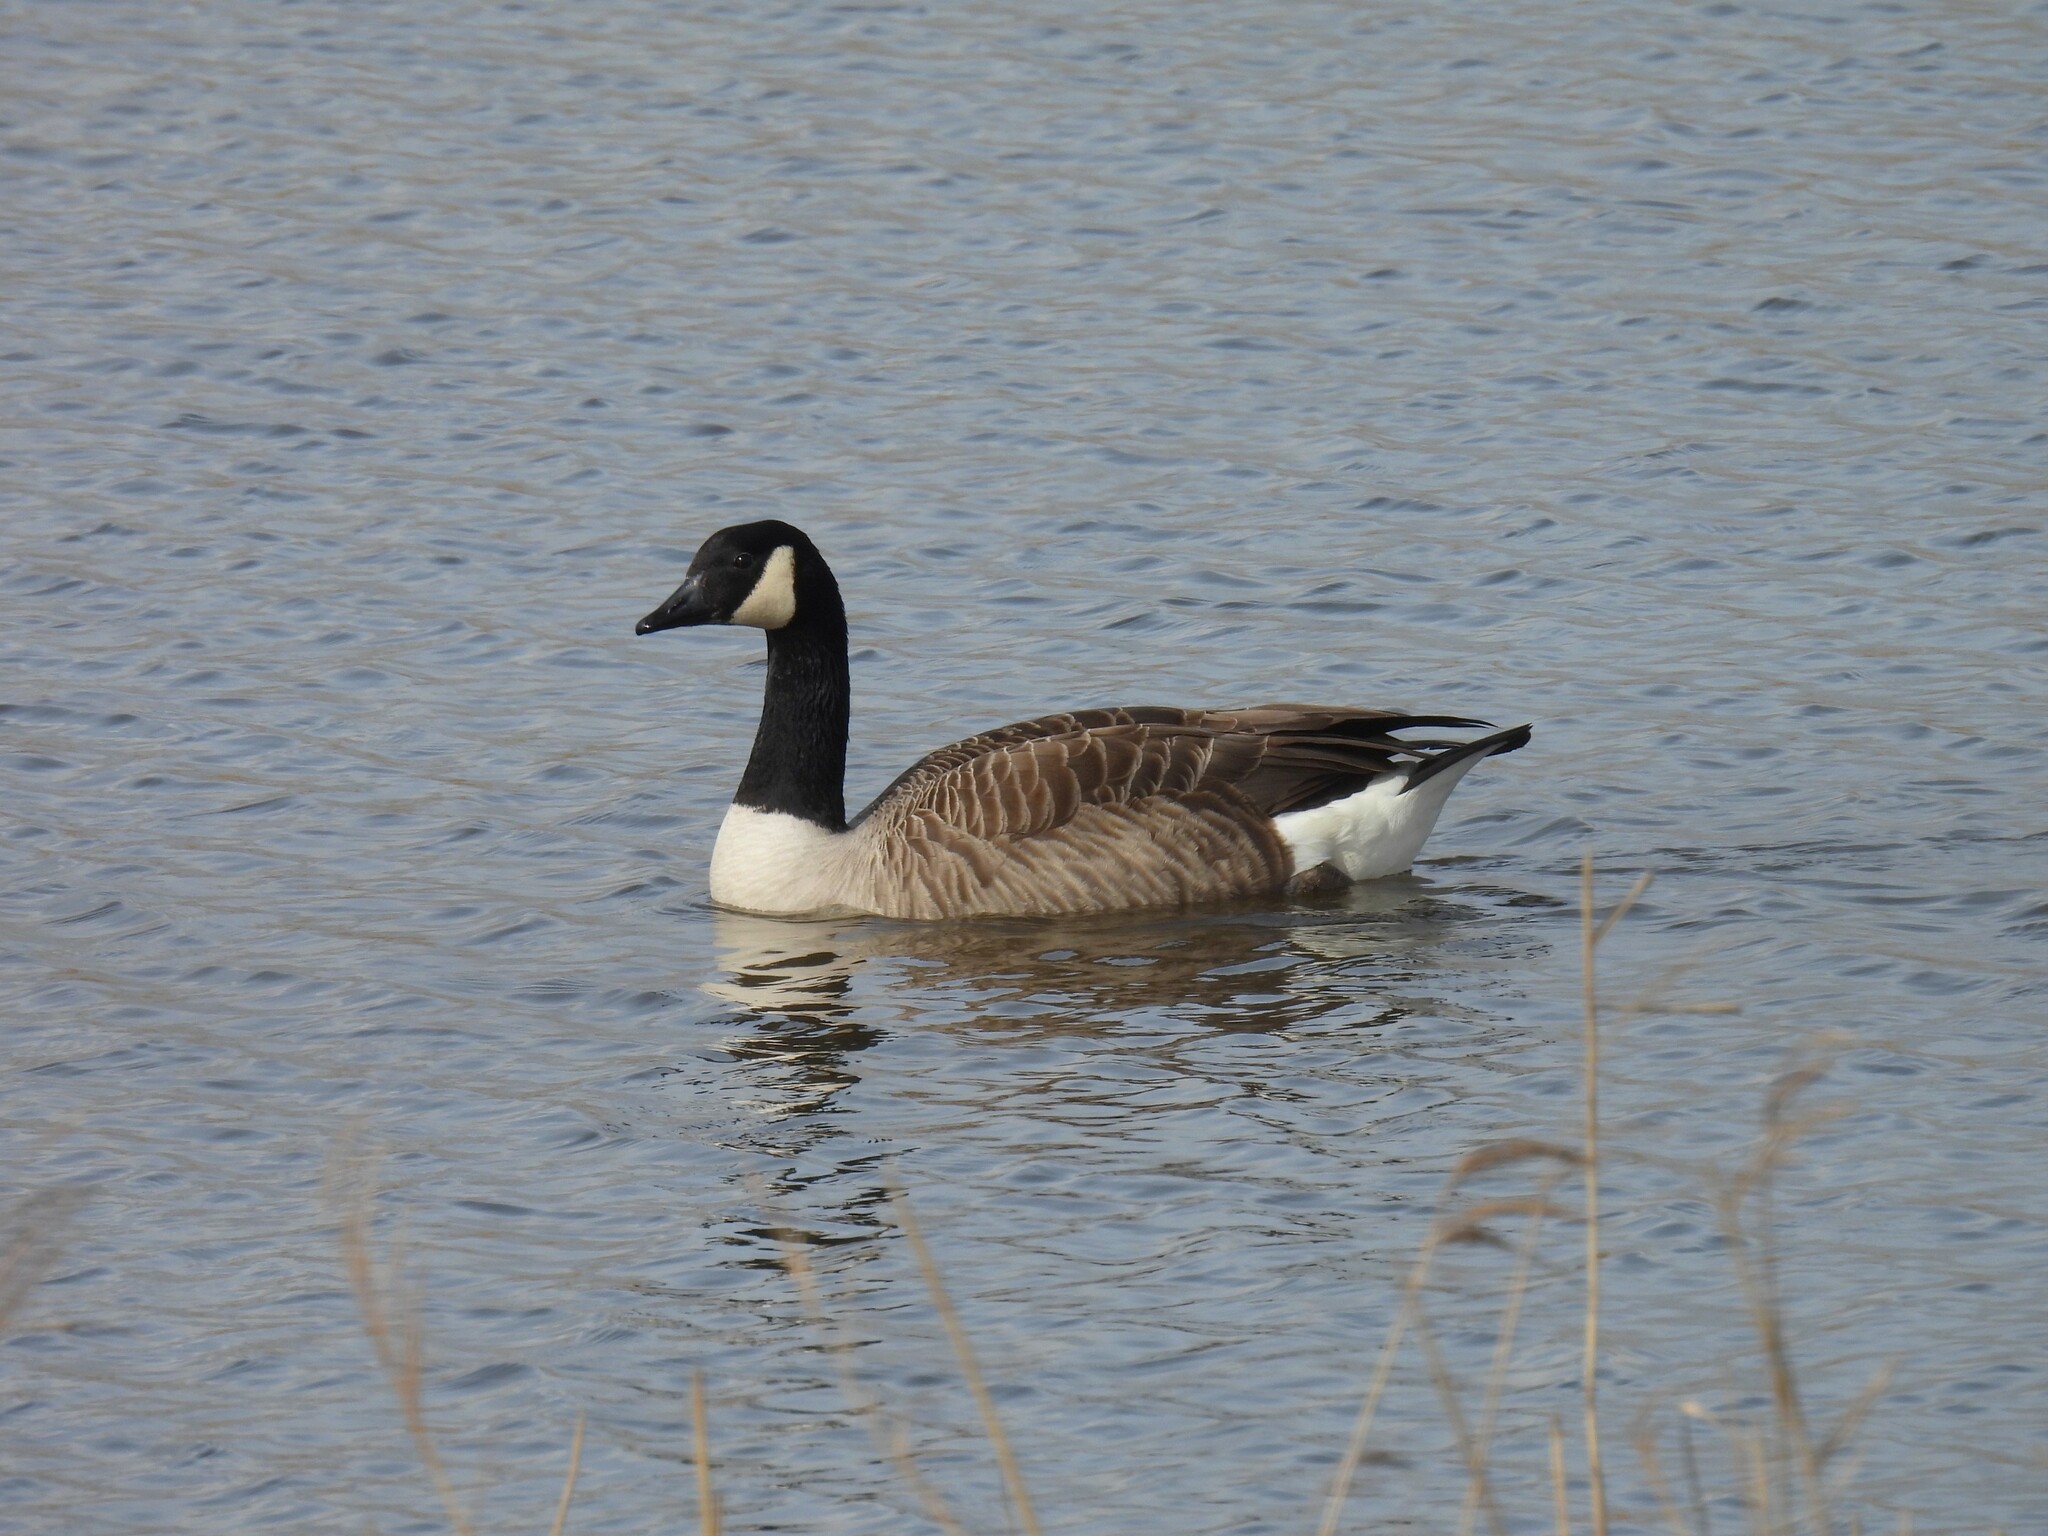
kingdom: Animalia
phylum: Chordata
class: Aves
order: Anseriformes
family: Anatidae
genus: Branta
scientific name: Branta canadensis
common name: Canada goose
